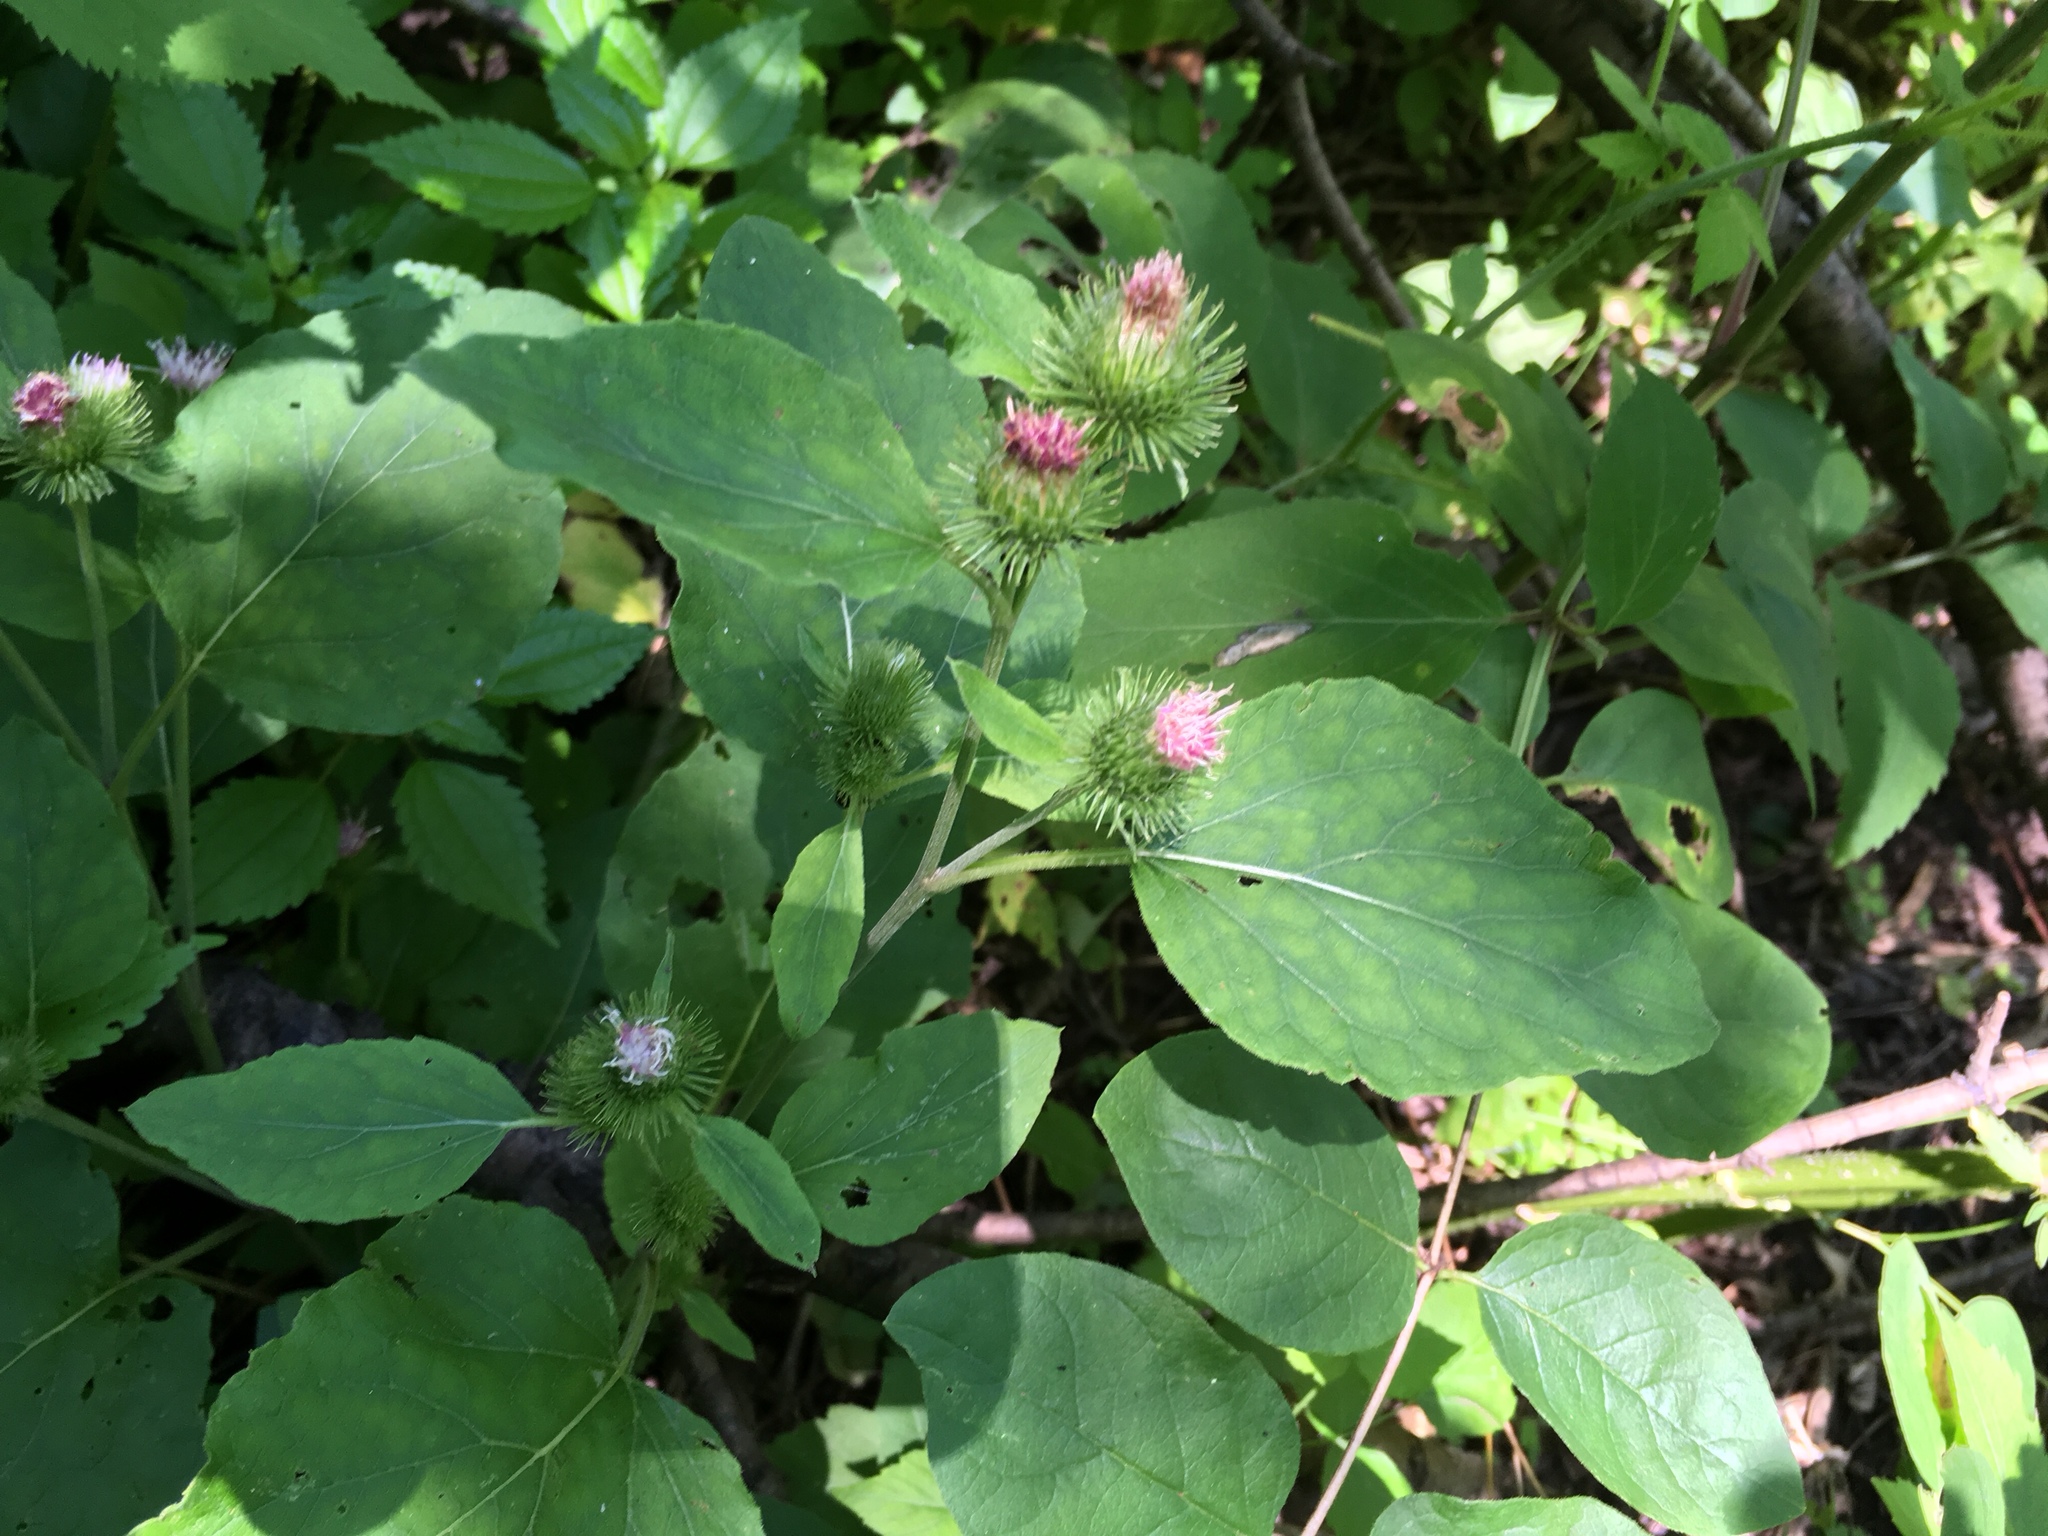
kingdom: Plantae
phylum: Tracheophyta
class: Magnoliopsida
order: Asterales
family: Asteraceae
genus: Arctium
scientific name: Arctium minus
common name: Lesser burdock
